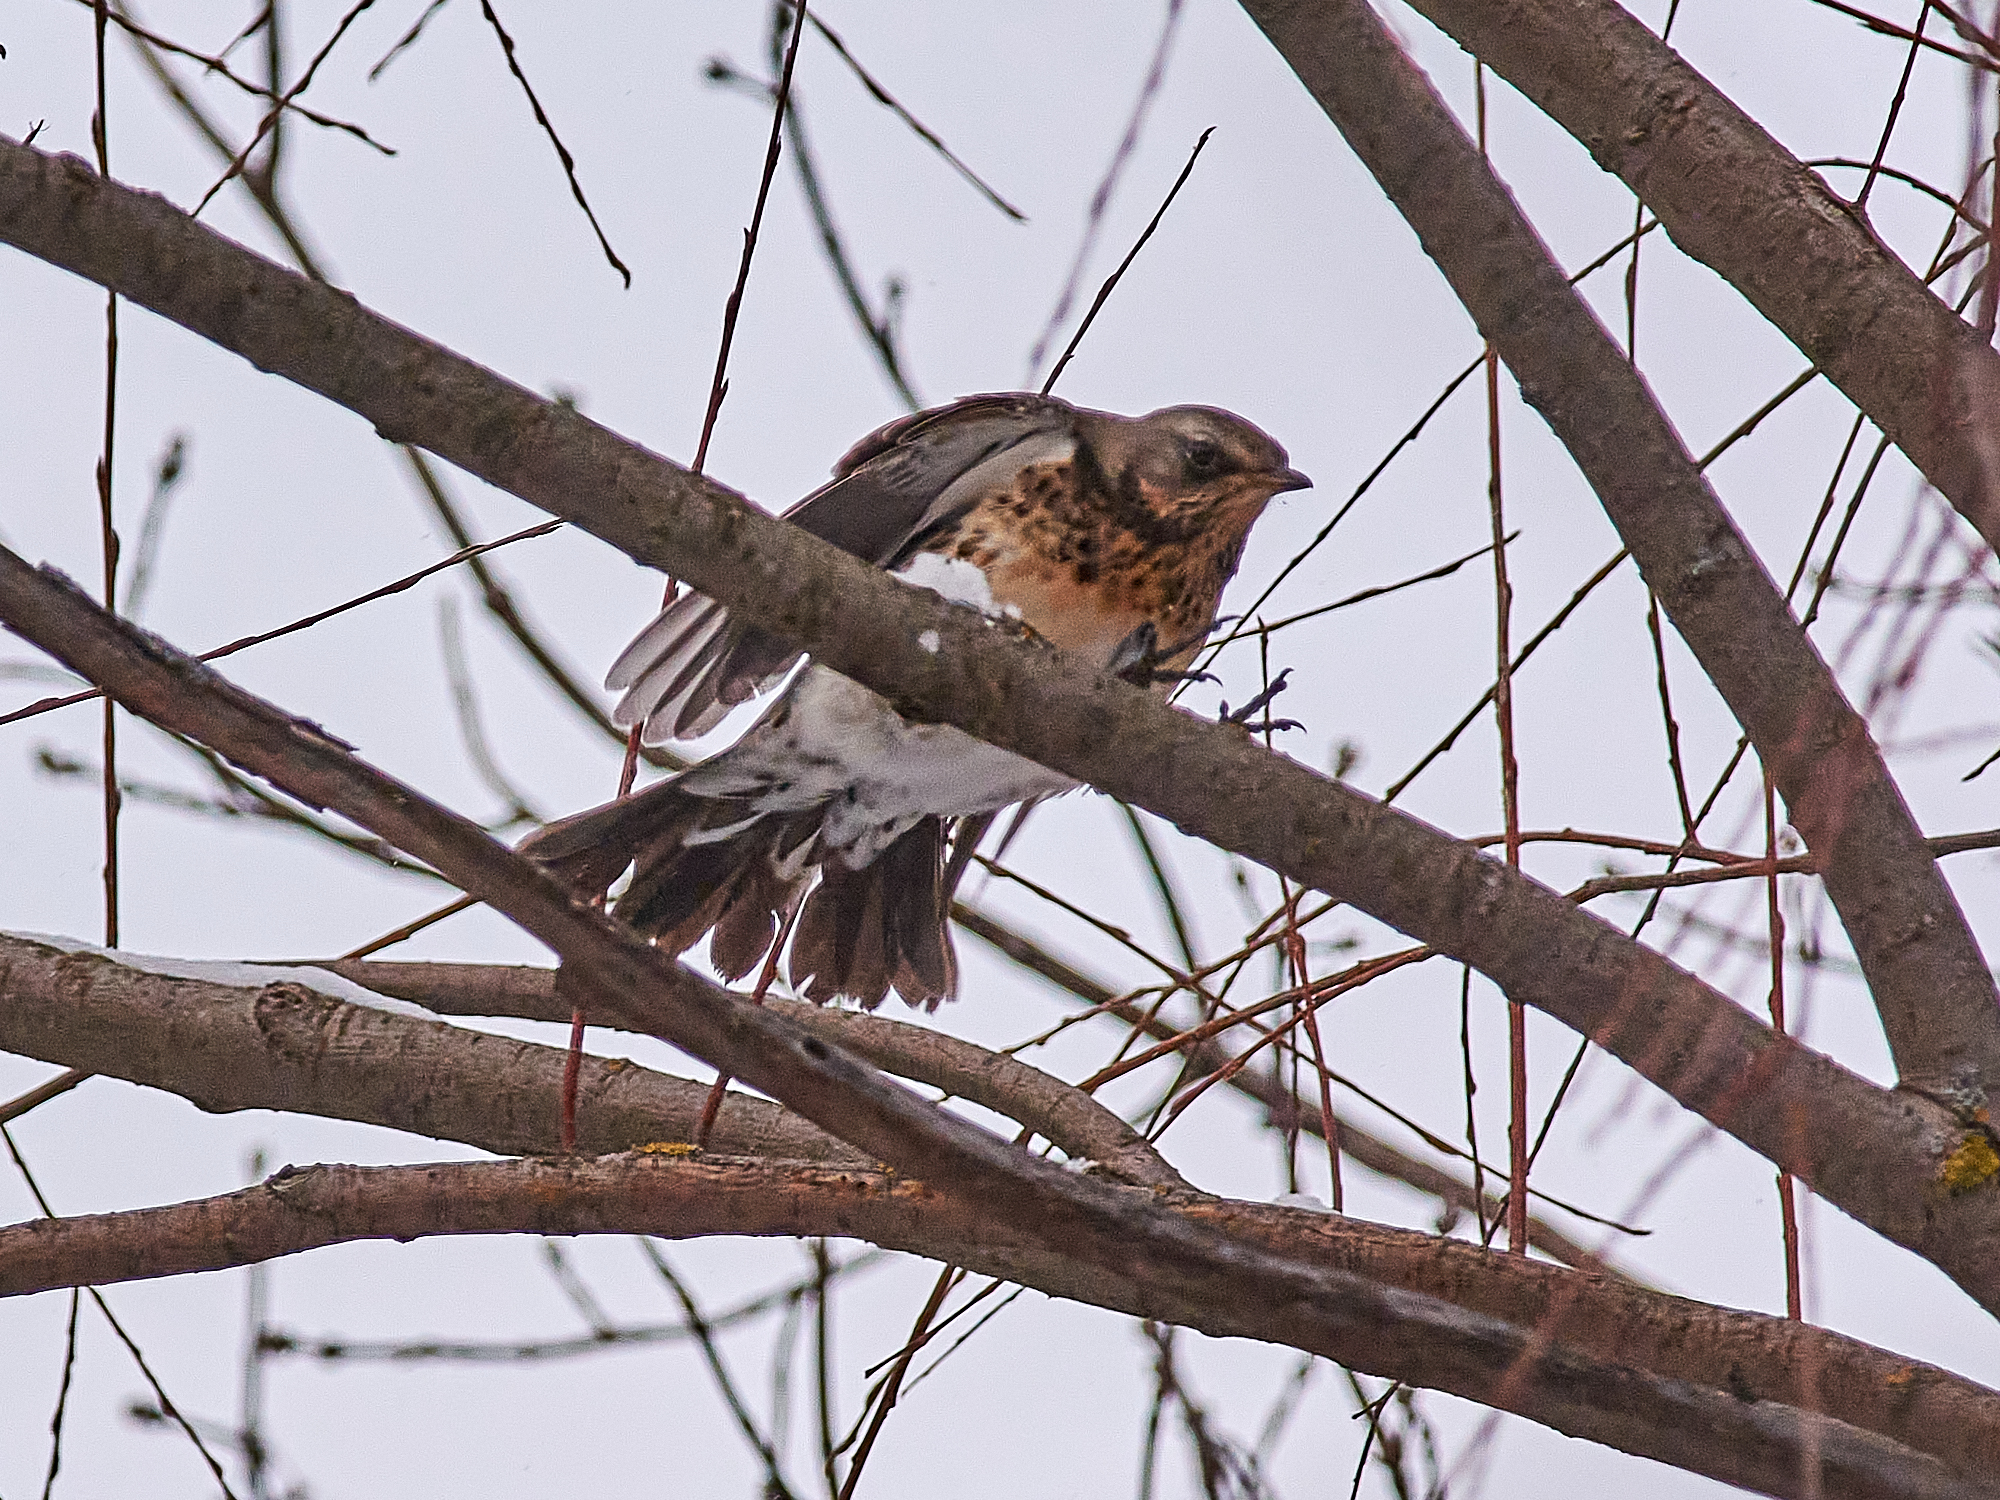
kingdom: Animalia
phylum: Chordata
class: Aves
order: Passeriformes
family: Turdidae
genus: Turdus
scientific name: Turdus pilaris
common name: Fieldfare
